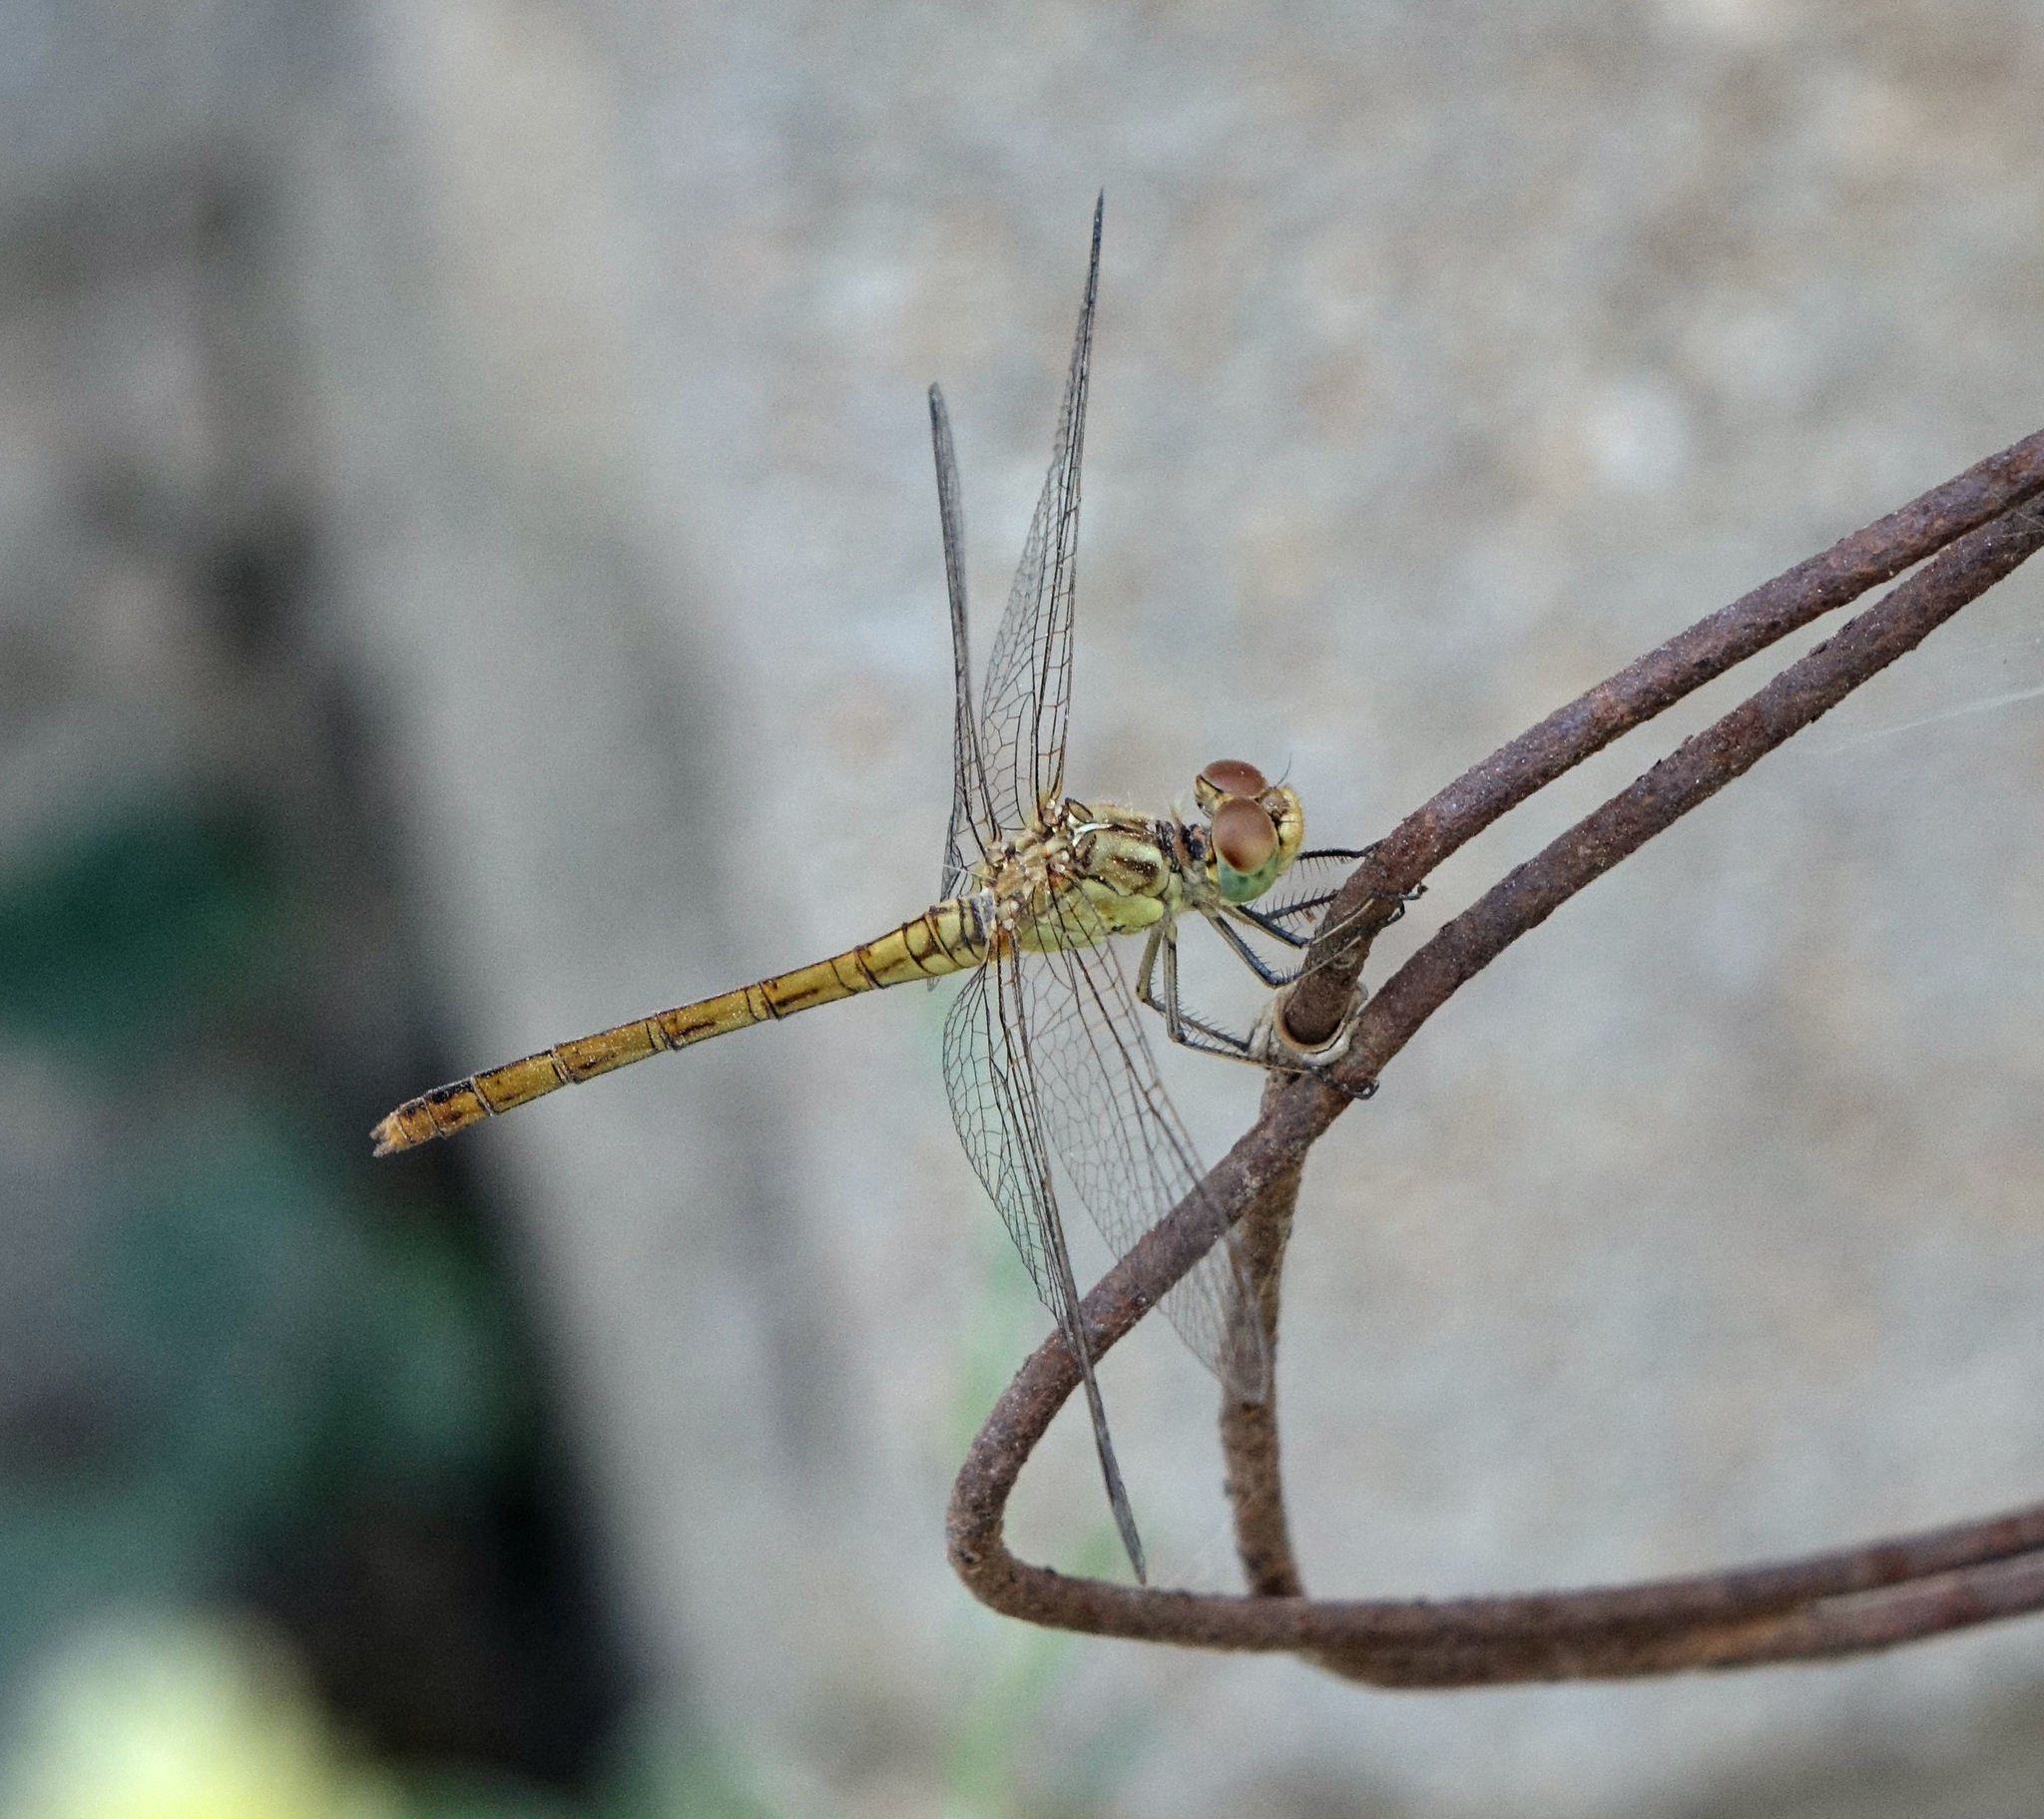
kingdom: Animalia
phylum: Arthropoda
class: Insecta
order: Odonata
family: Libellulidae
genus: Sympetrum
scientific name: Sympetrum meridionale
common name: Southern darter
